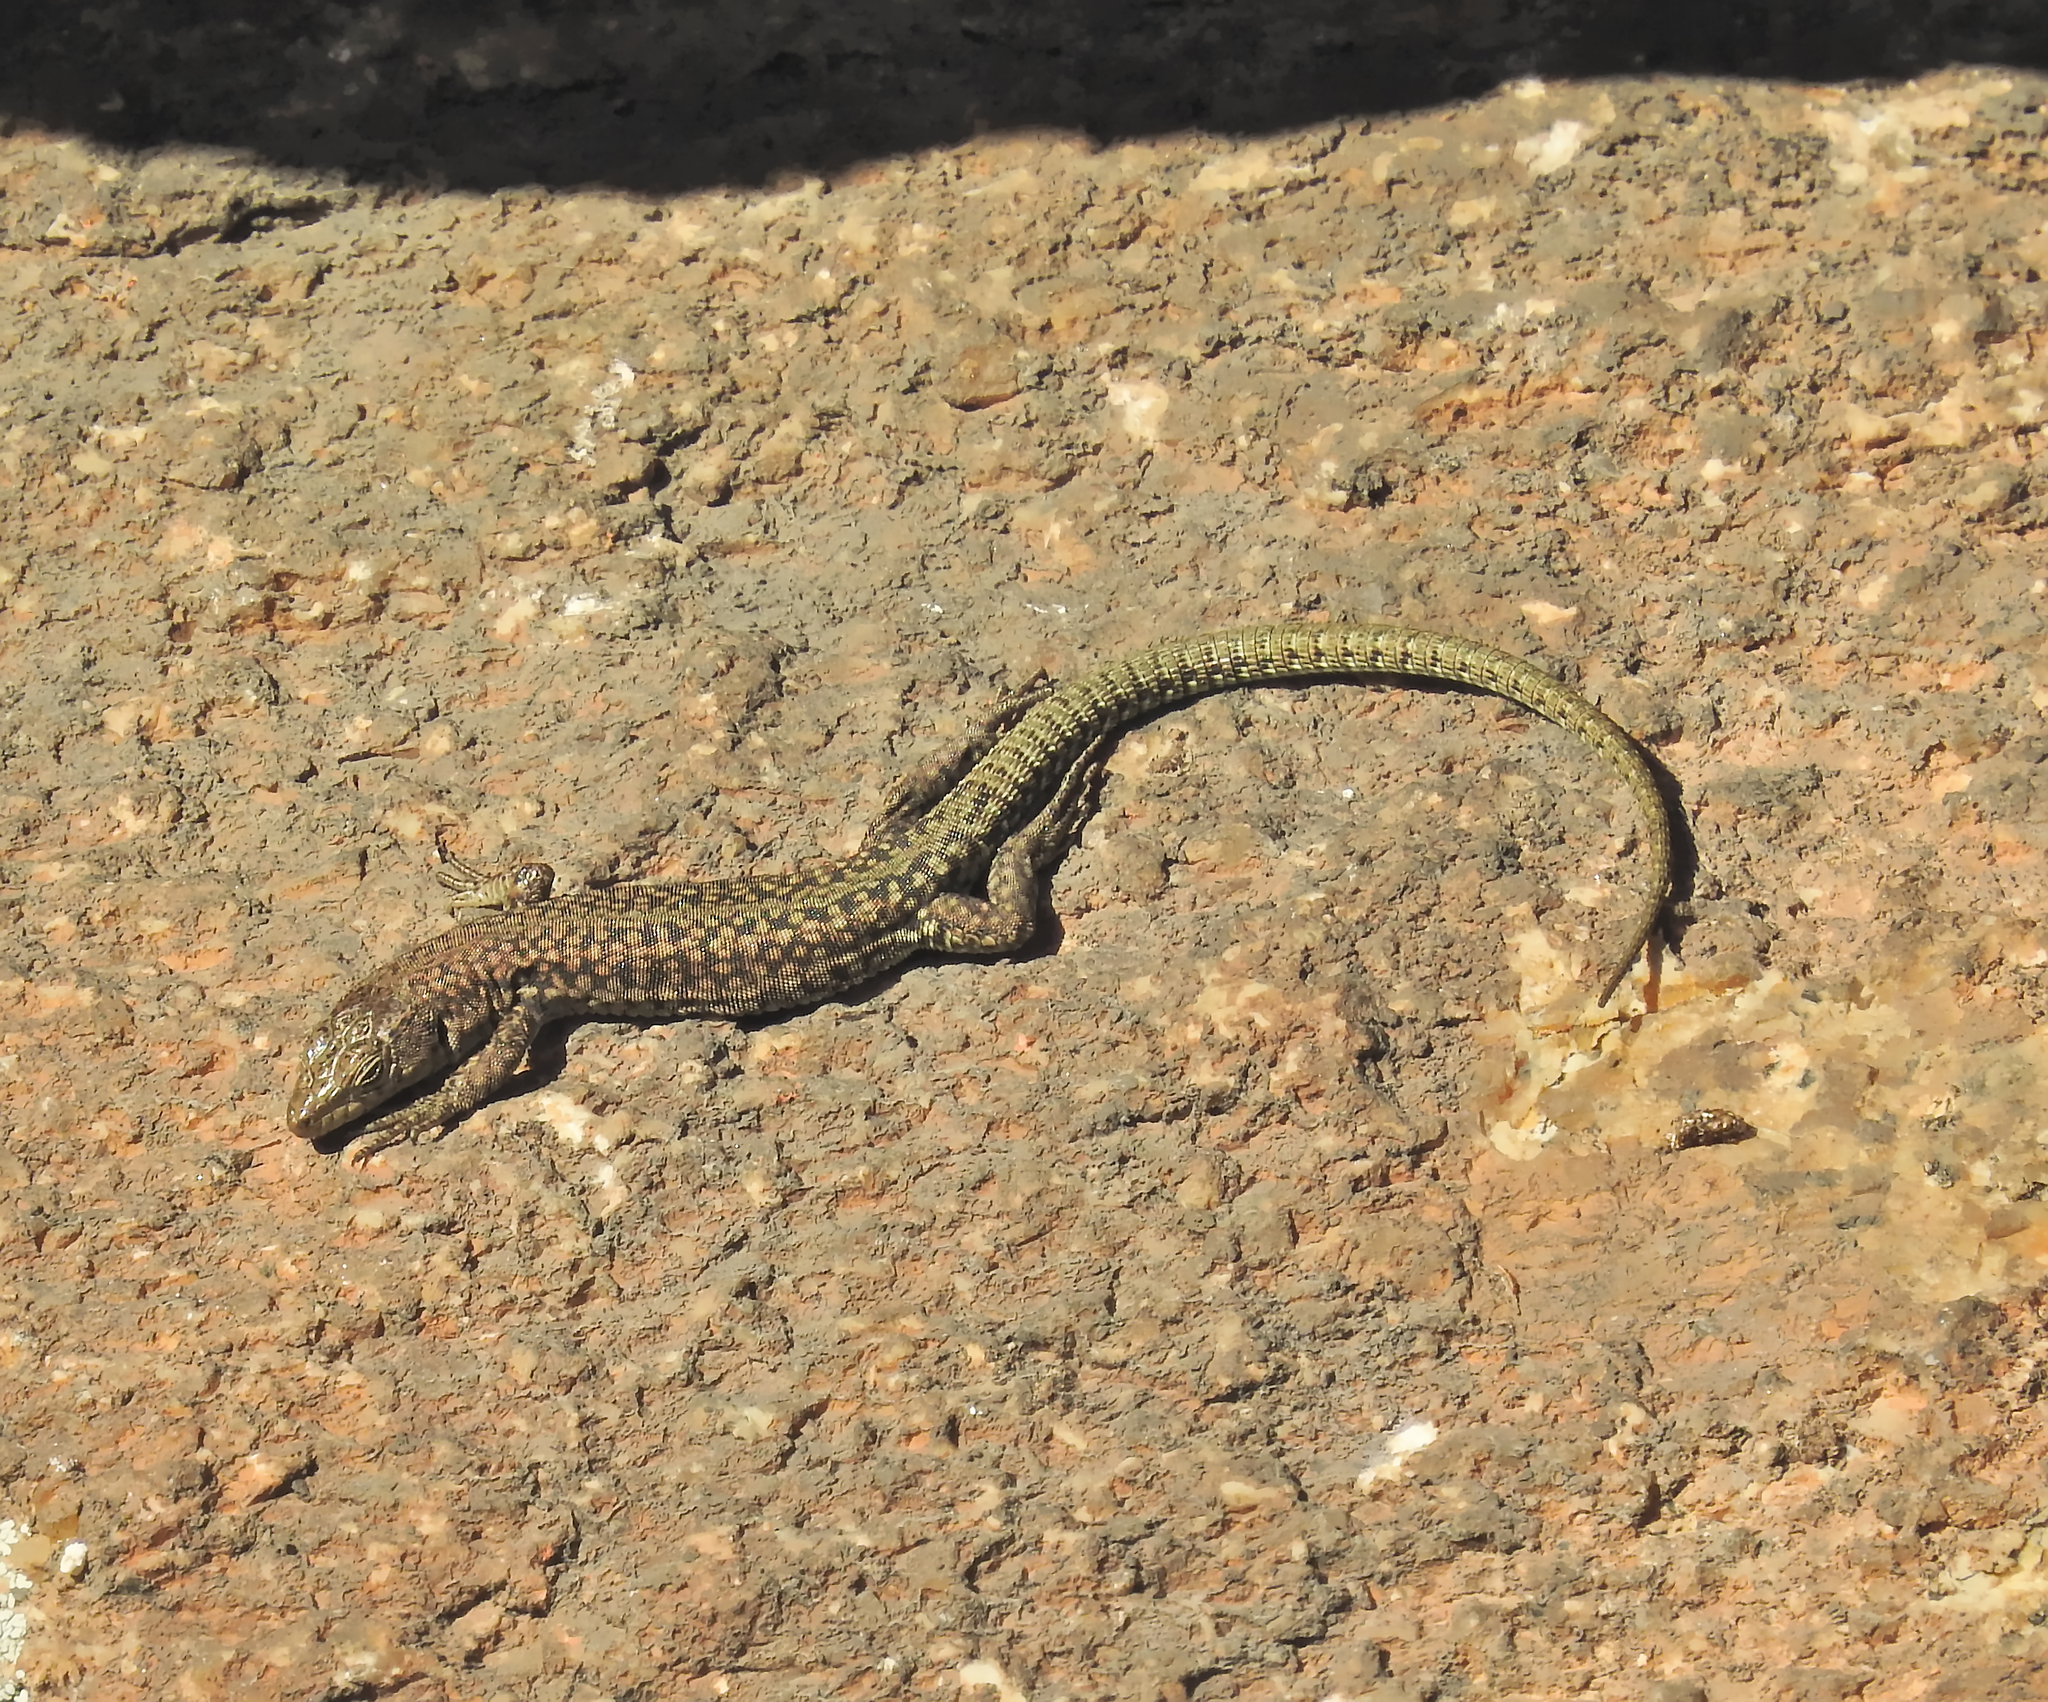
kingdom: Animalia
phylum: Chordata
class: Squamata
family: Lacertidae
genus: Podarcis
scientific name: Podarcis guadarramae
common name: Guadarrama wall lizard
